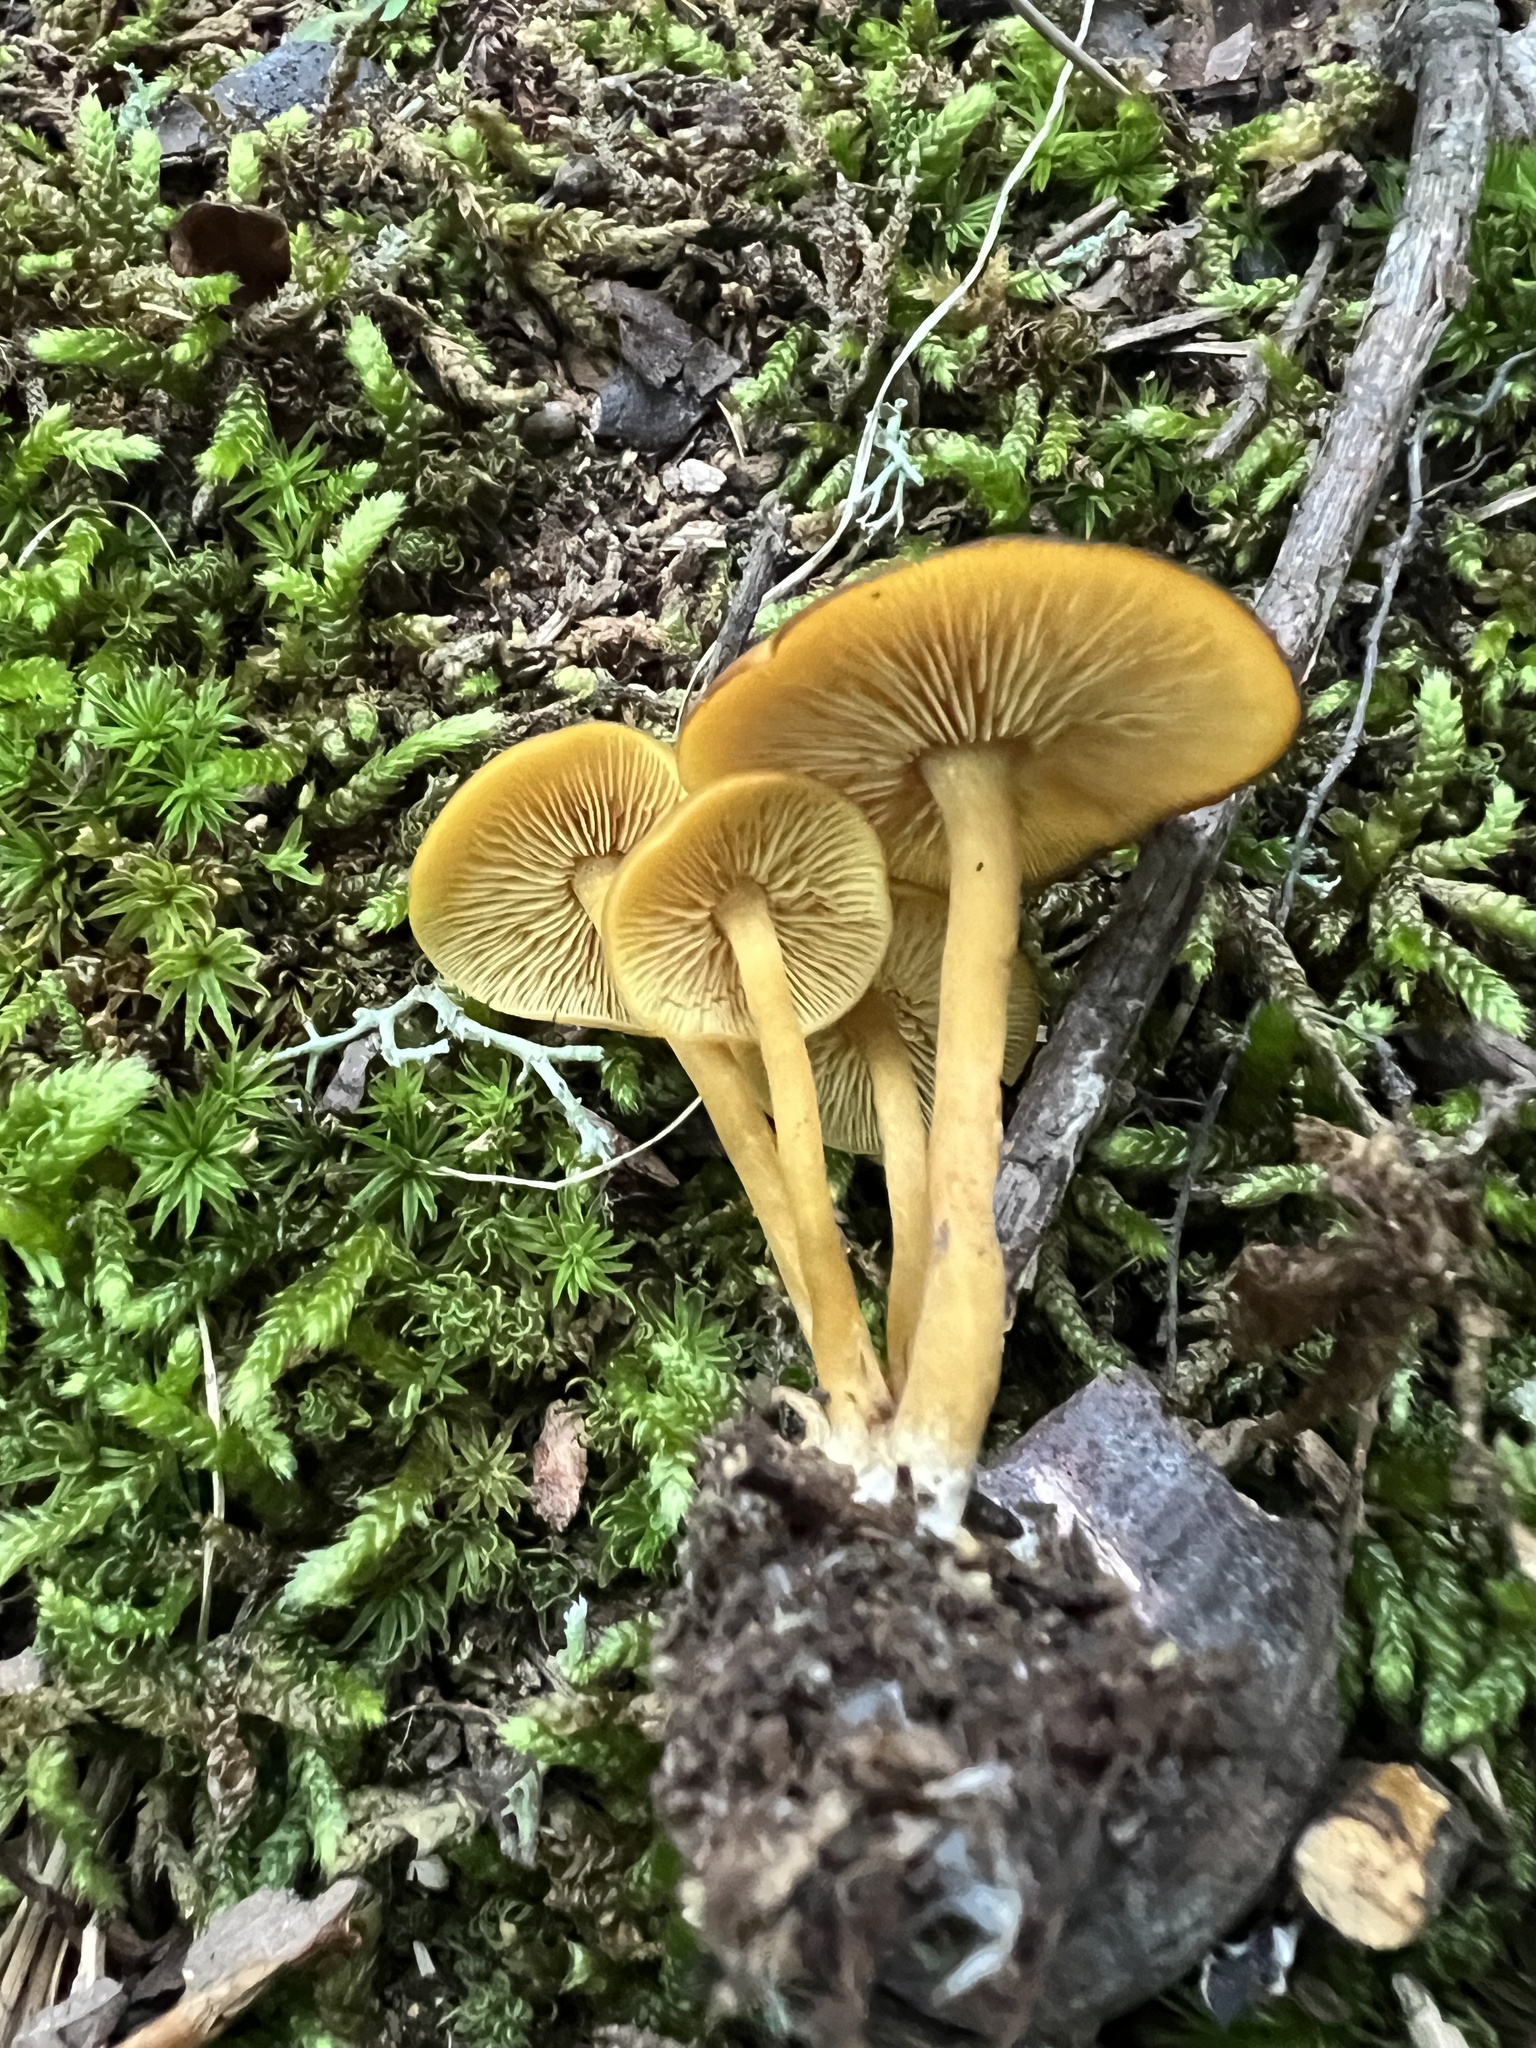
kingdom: Fungi
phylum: Basidiomycota
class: Agaricomycetes
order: Agaricales
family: Callistosporiaceae
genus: Callistosporium
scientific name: Callistosporium luteo-olivaceum
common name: Olive lute
